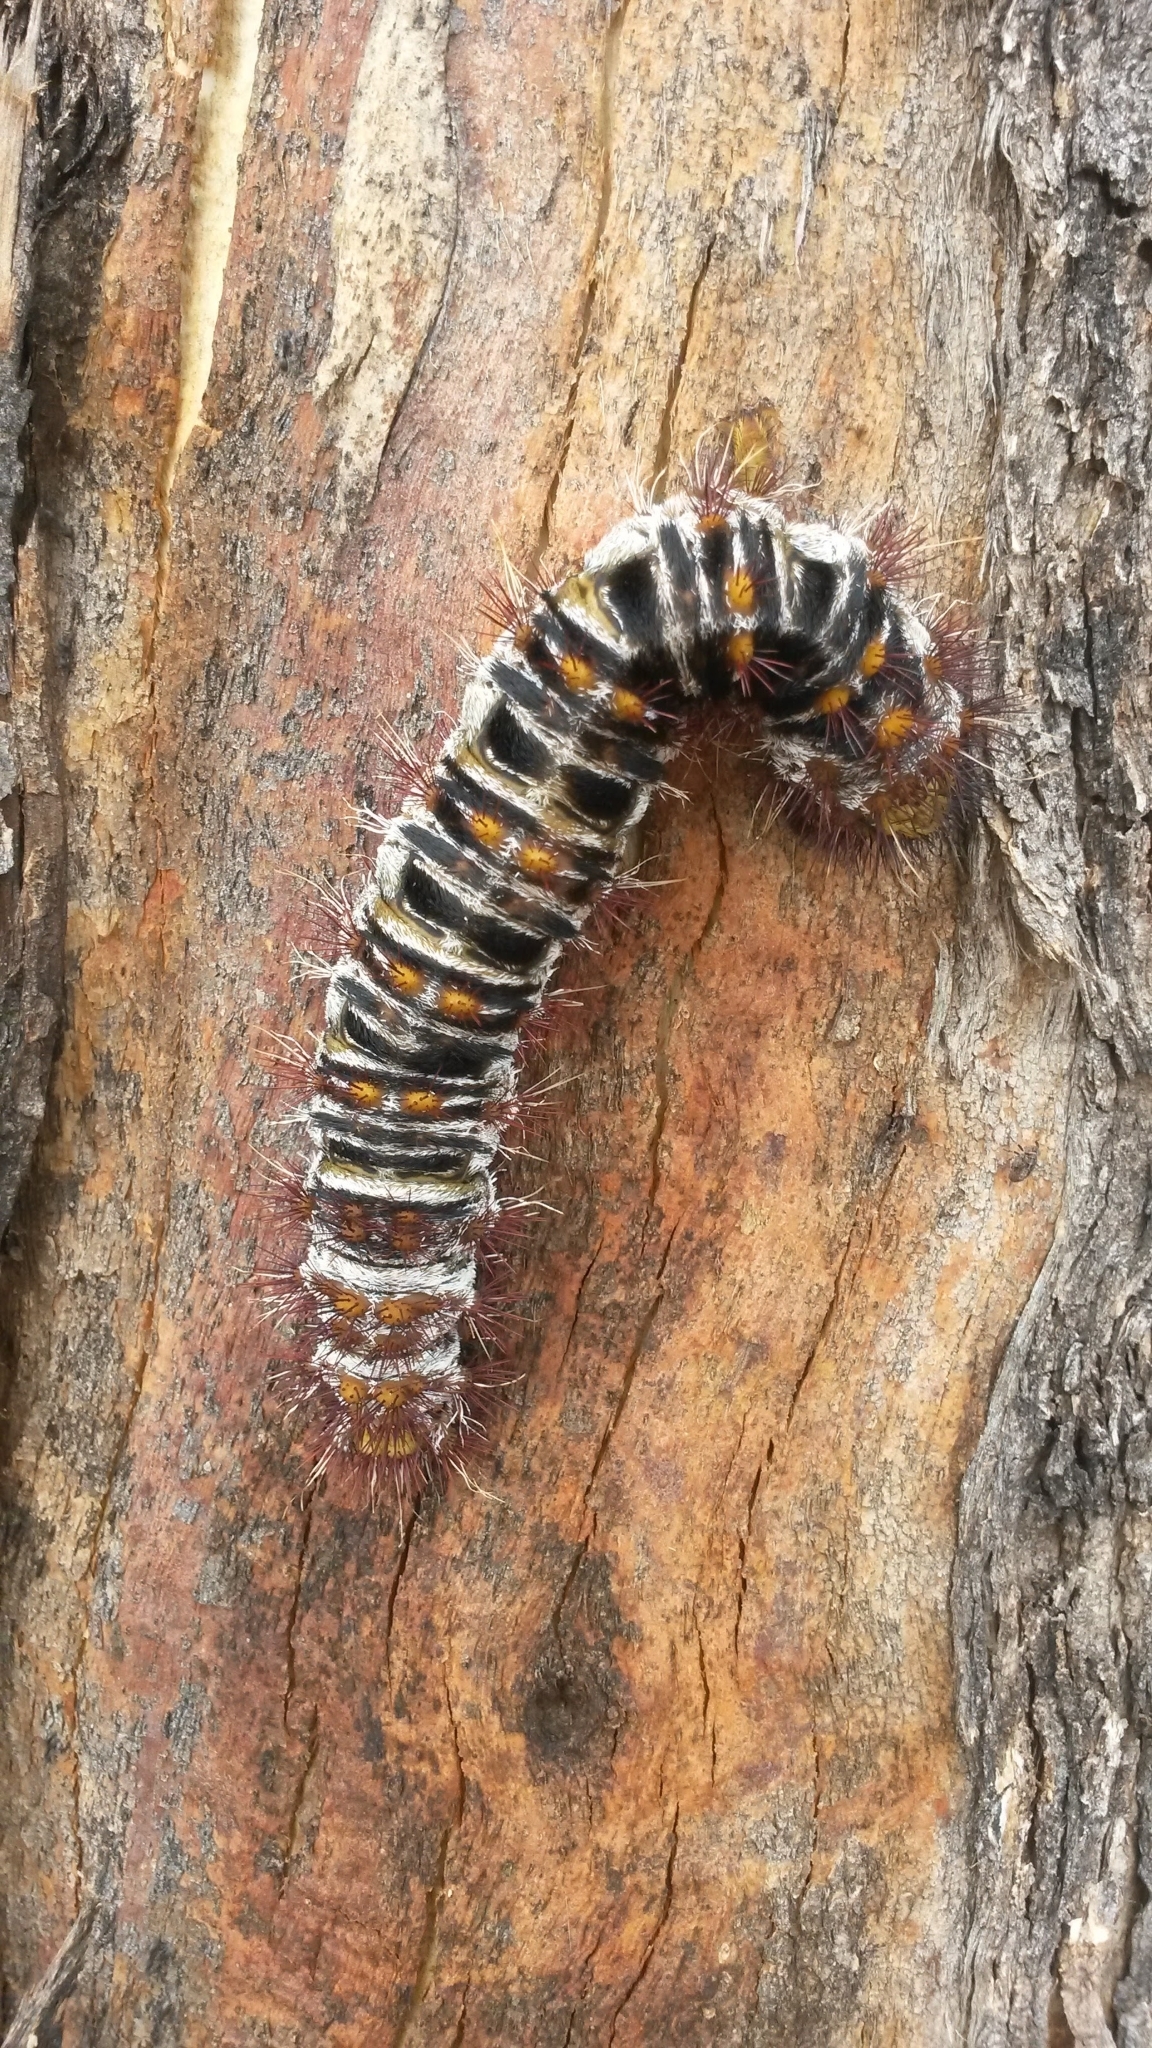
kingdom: Animalia
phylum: Arthropoda
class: Insecta
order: Lepidoptera
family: Anthelidae
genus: Chelepteryx
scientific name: Chelepteryx collesi
